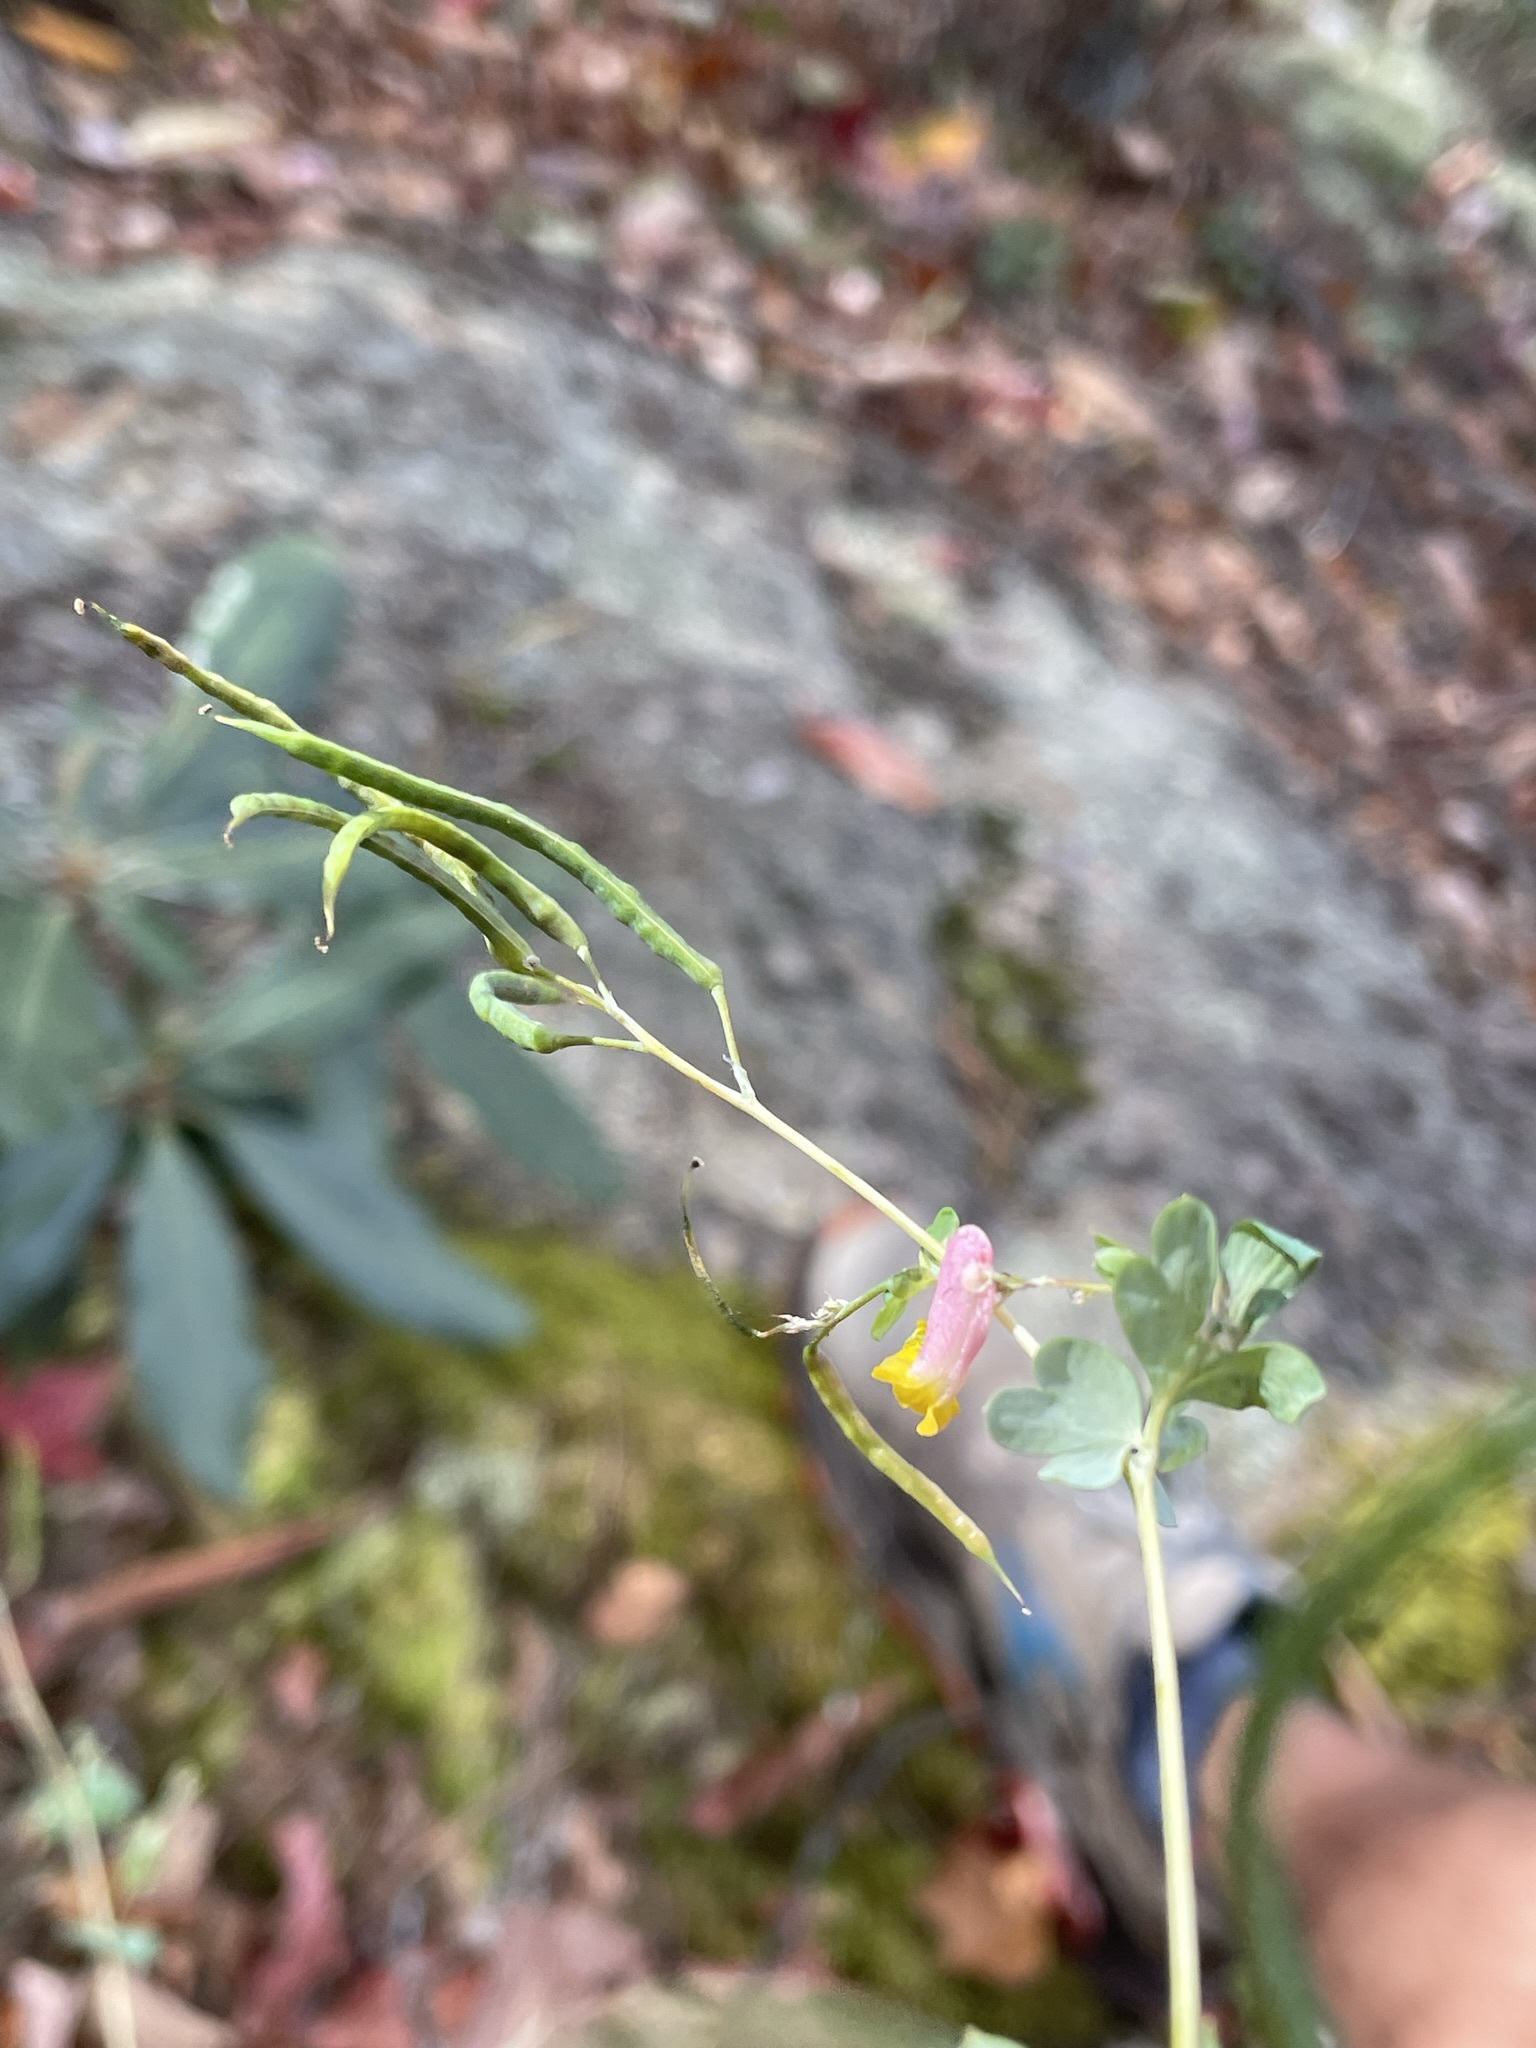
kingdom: Plantae
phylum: Tracheophyta
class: Magnoliopsida
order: Ranunculales
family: Papaveraceae
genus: Capnoides
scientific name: Capnoides sempervirens
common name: Rock harlequin
